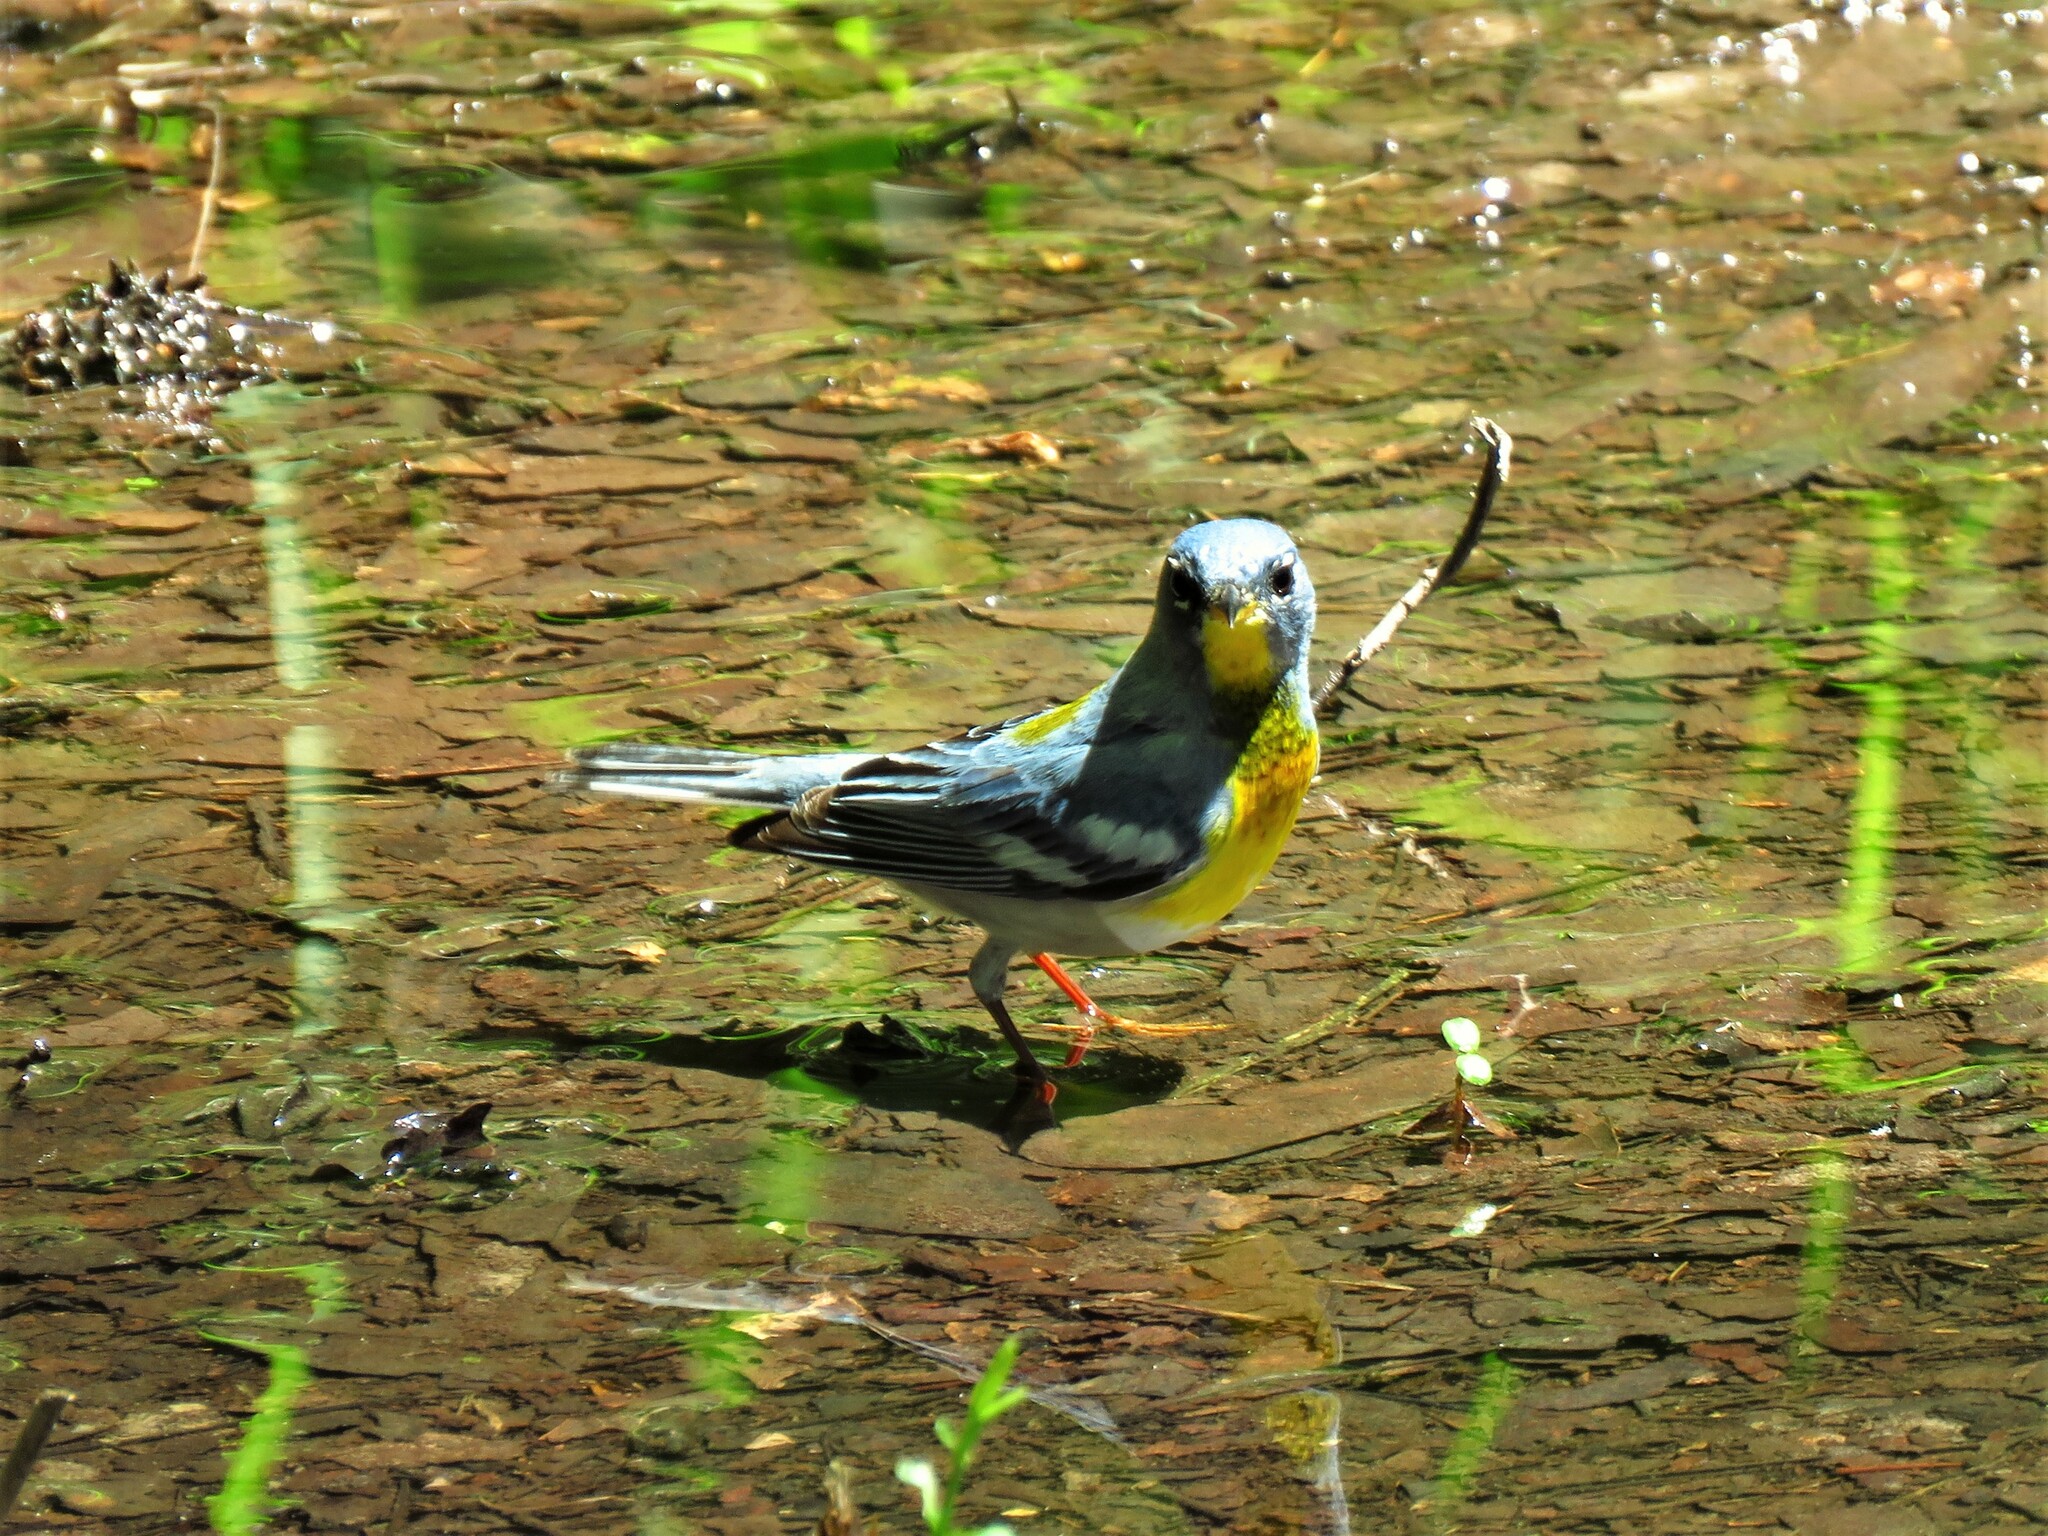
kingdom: Animalia
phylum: Chordata
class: Aves
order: Passeriformes
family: Parulidae
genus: Setophaga
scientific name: Setophaga americana
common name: Northern parula
